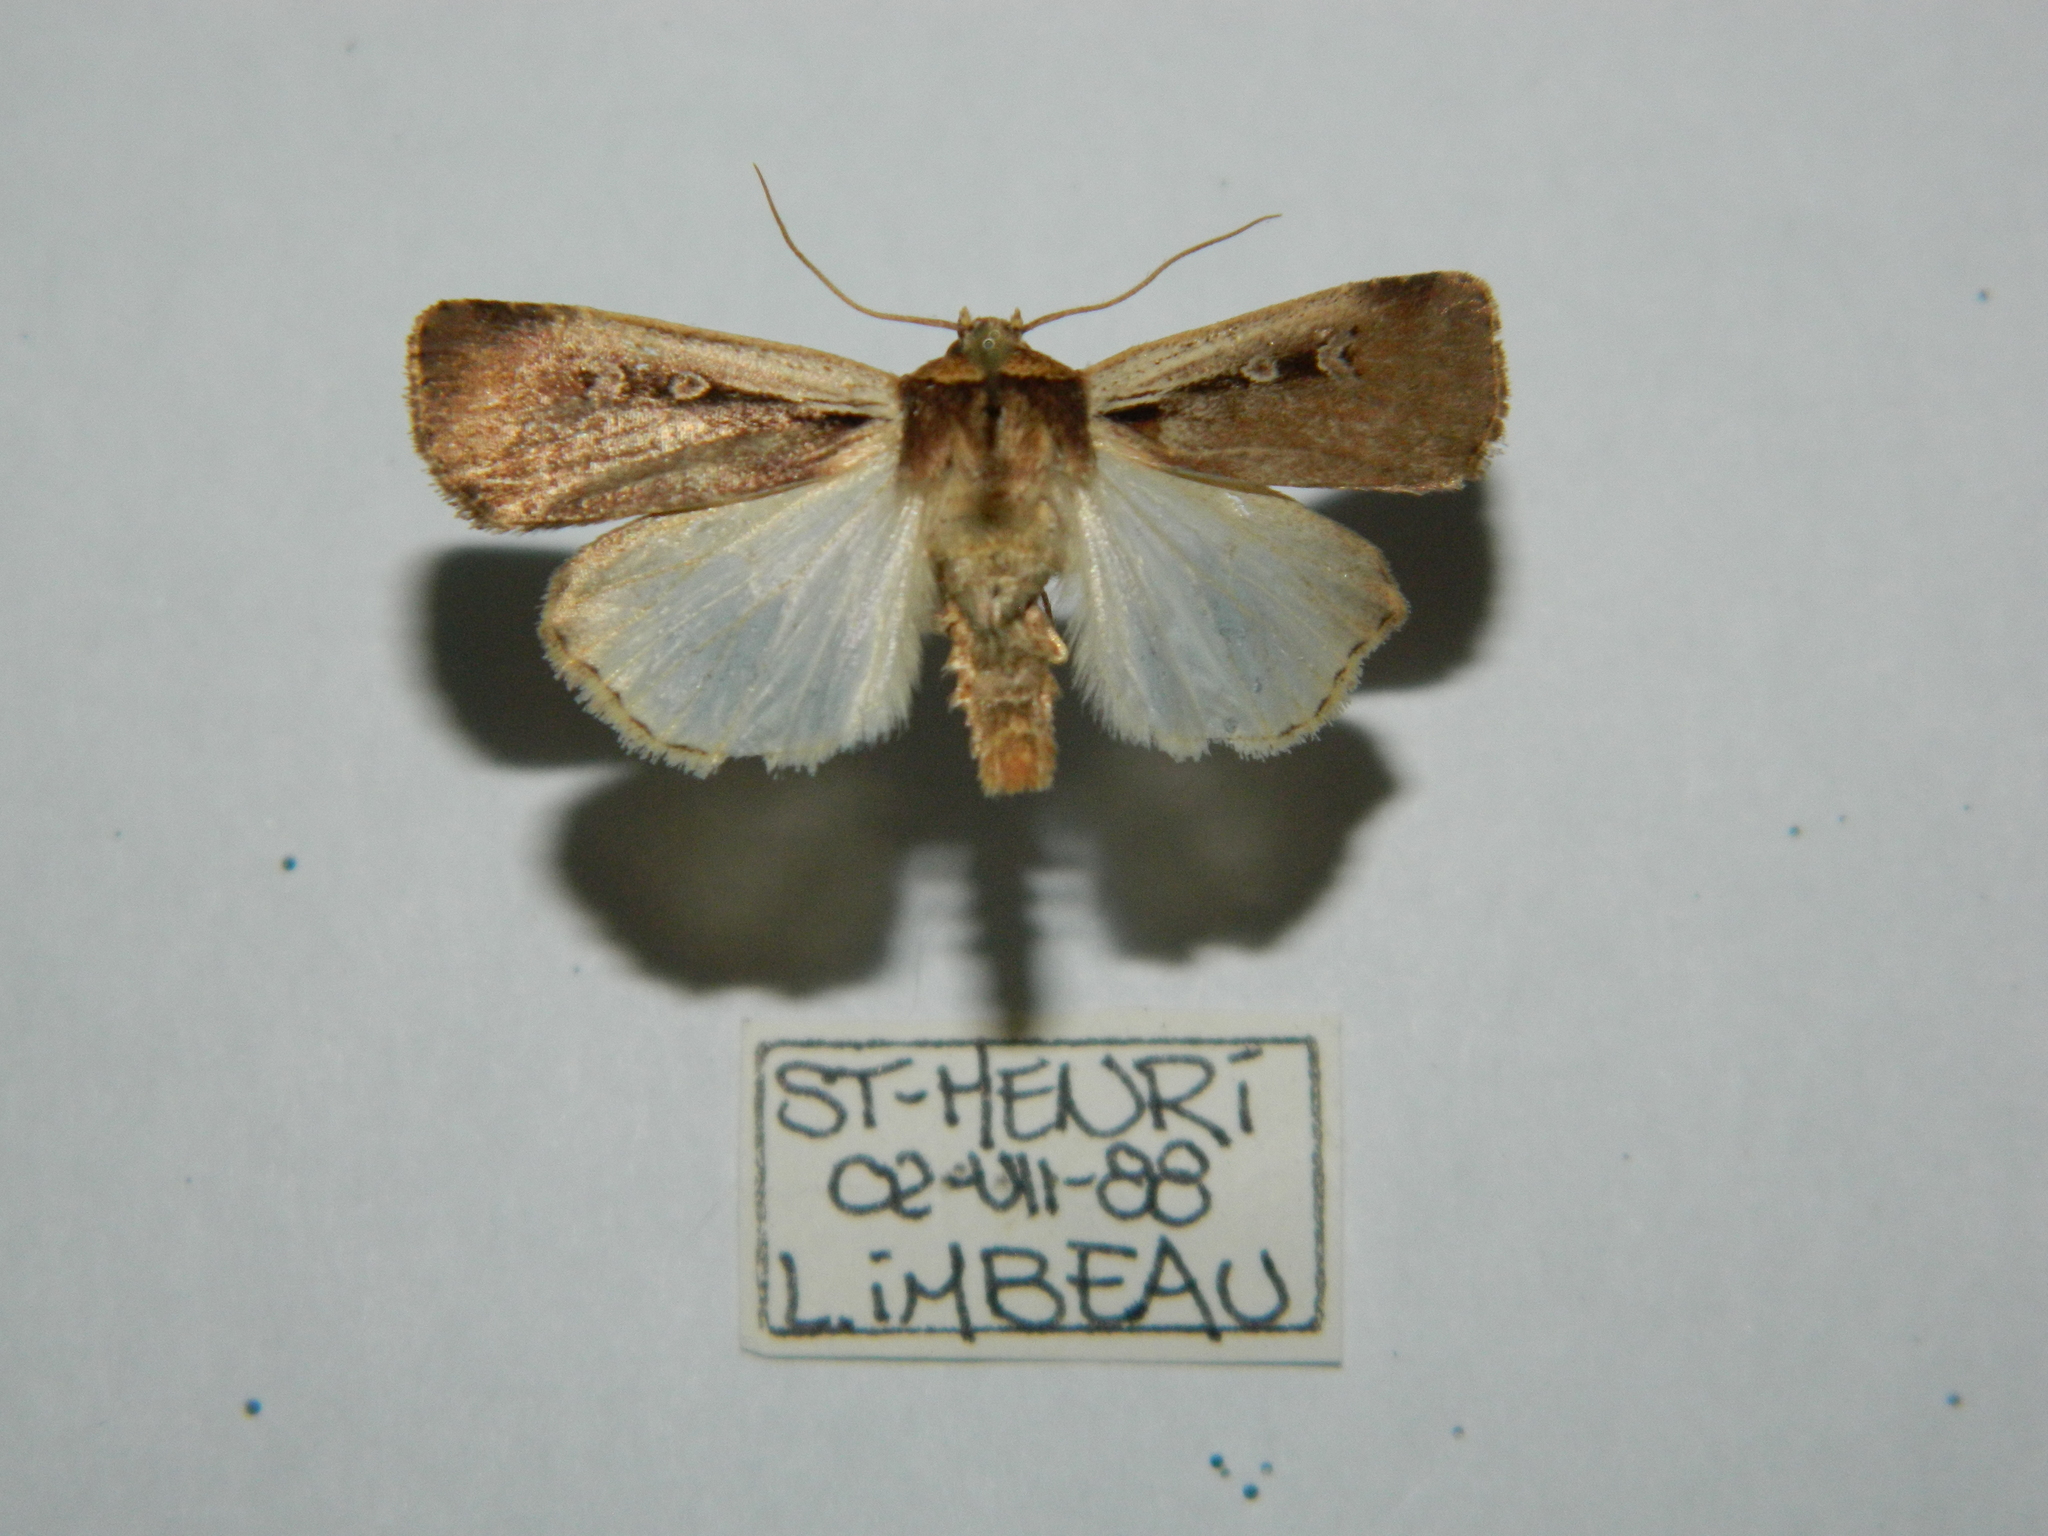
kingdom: Animalia
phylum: Arthropoda
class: Insecta
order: Lepidoptera
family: Noctuidae
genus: Ochropleura
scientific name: Ochropleura implecta
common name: Flame-shouldered dart
